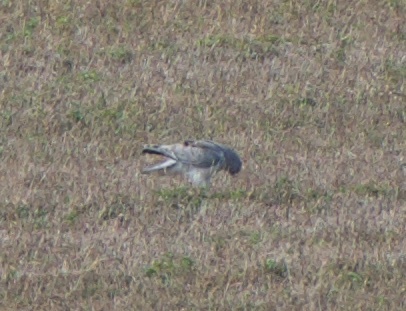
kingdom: Animalia
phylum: Chordata
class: Aves
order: Accipitriformes
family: Accipitridae
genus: Circus
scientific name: Circus cyaneus
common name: Hen harrier
